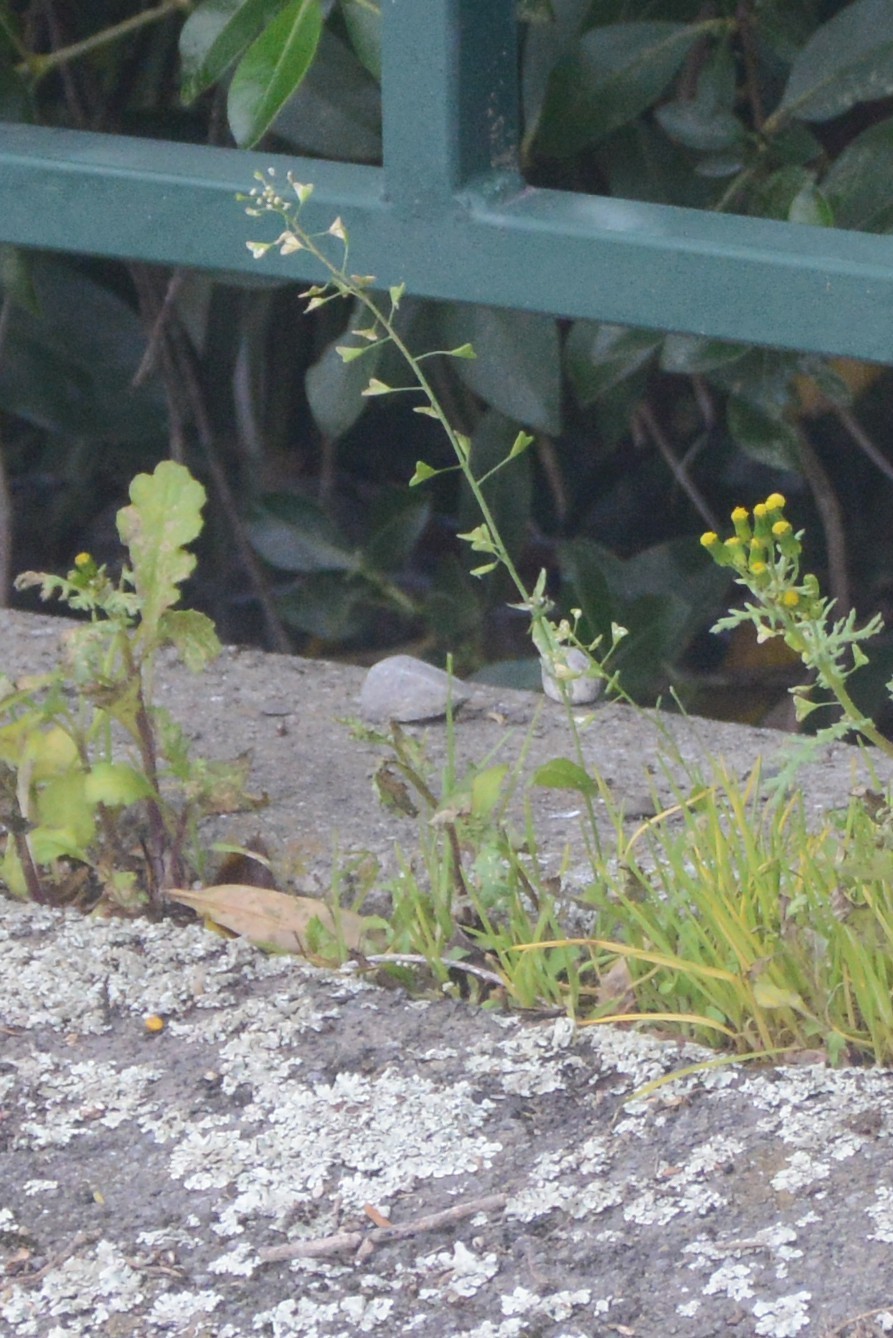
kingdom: Plantae
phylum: Tracheophyta
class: Magnoliopsida
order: Brassicales
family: Brassicaceae
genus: Capsella
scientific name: Capsella bursa-pastoris
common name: Shepherd's purse
